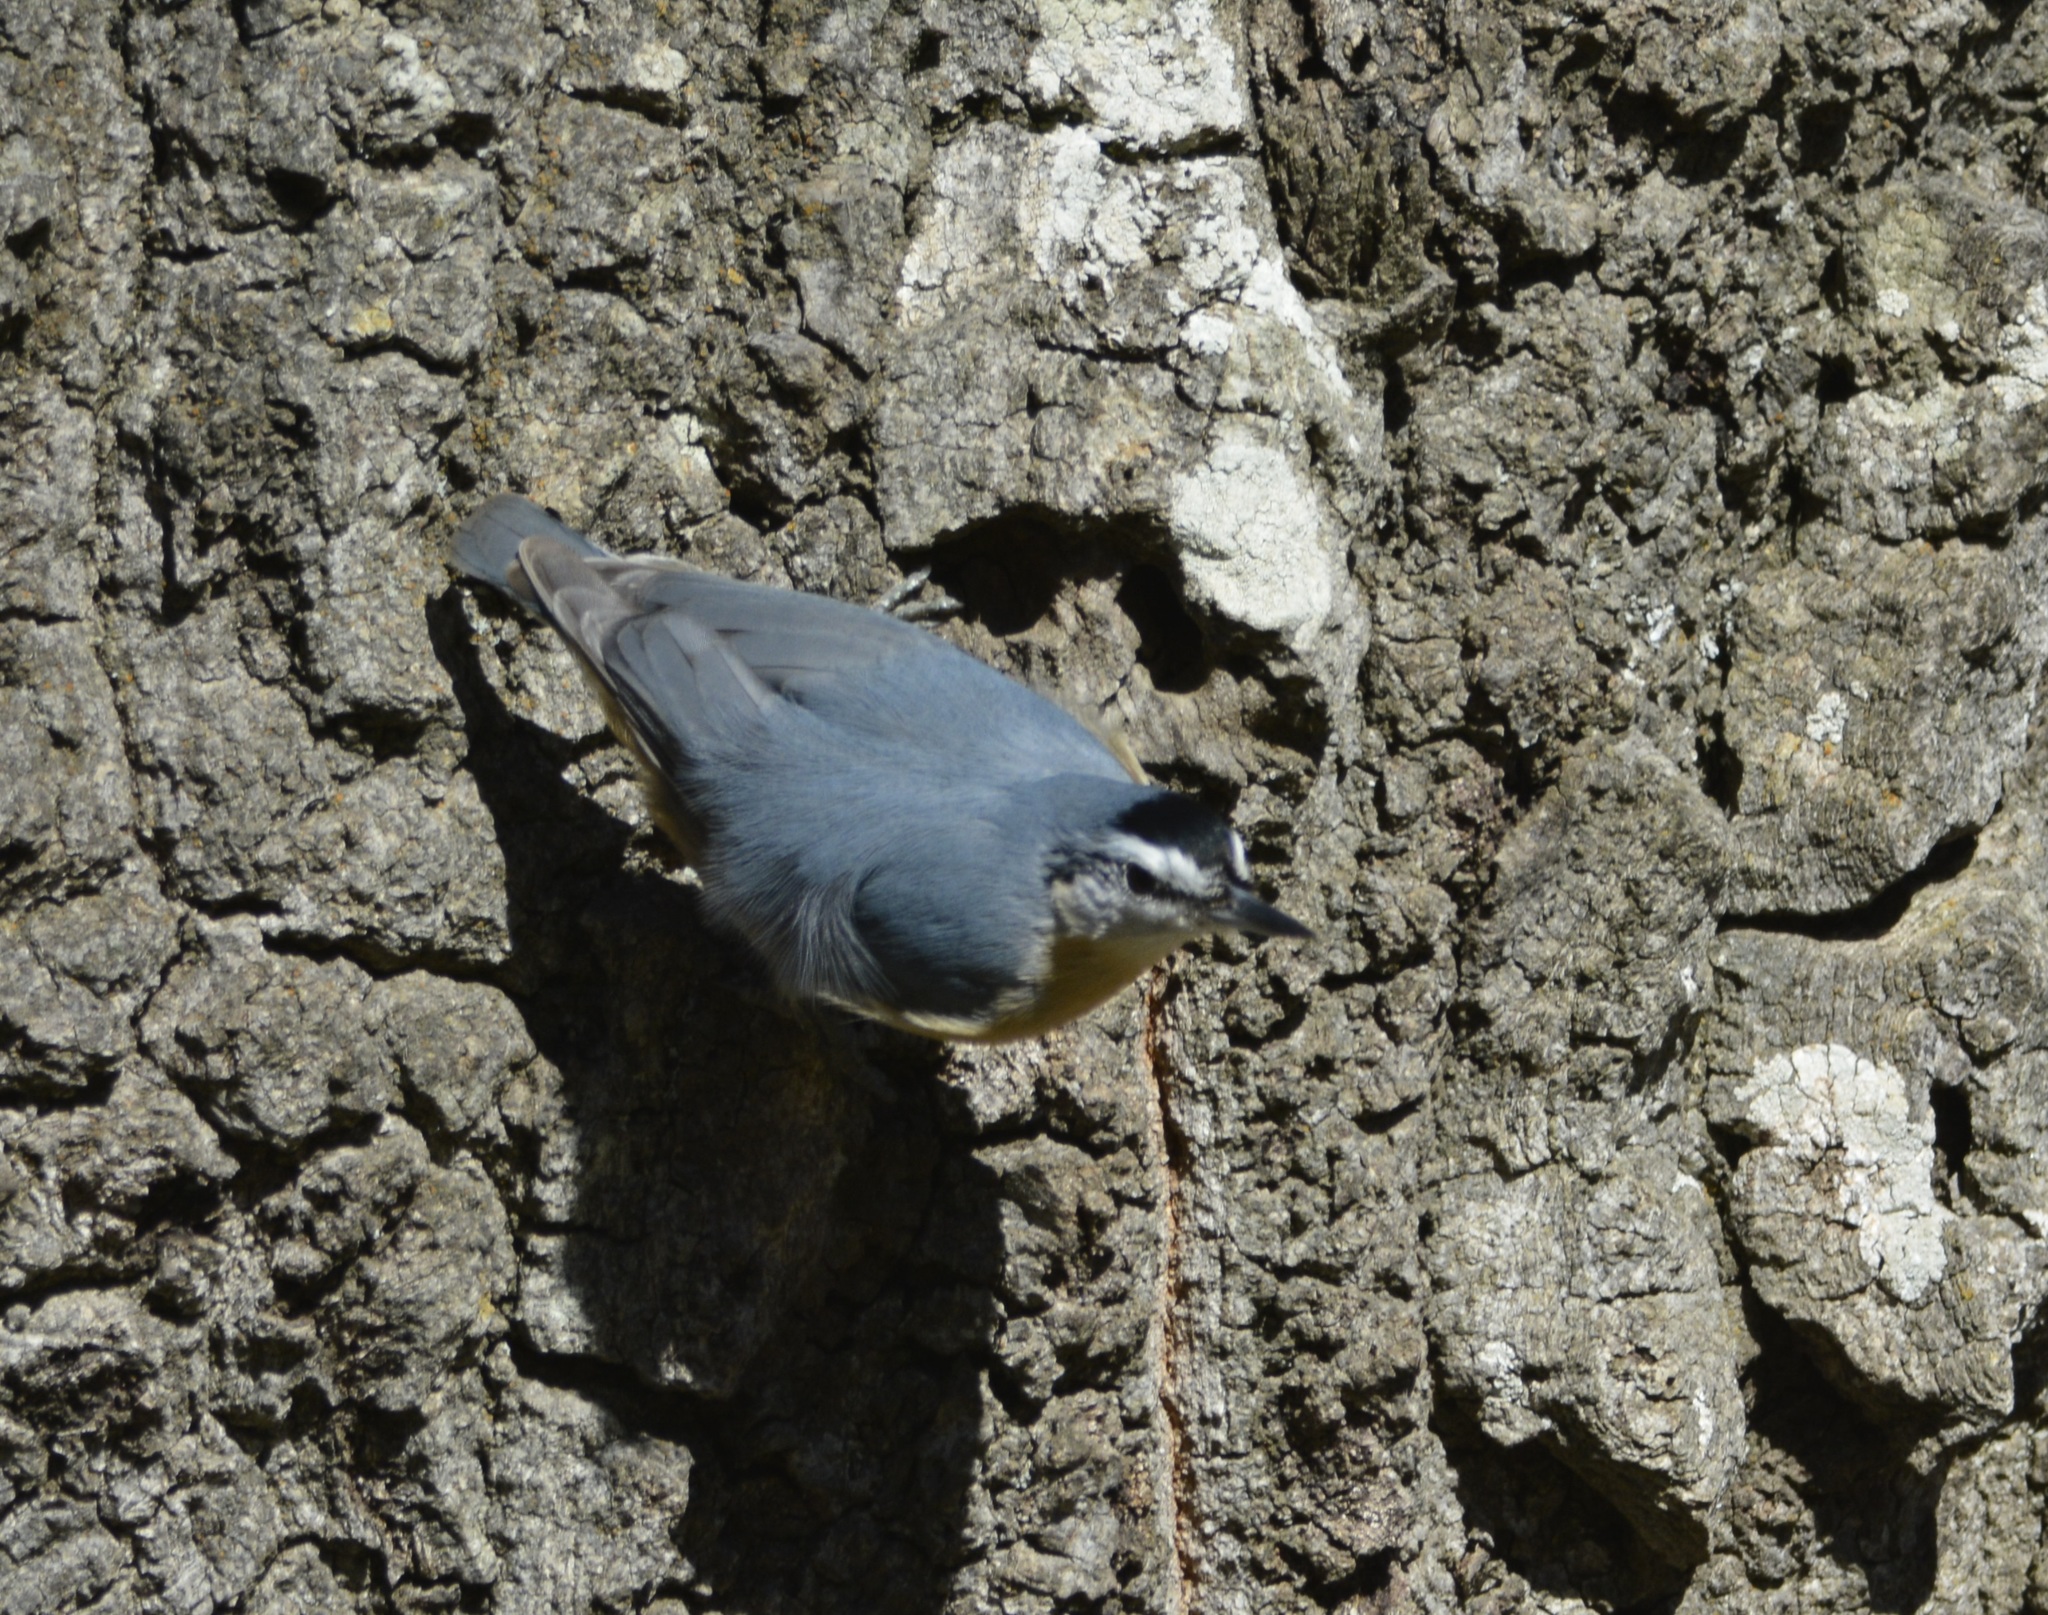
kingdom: Animalia
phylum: Chordata
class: Aves
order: Passeriformes
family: Sittidae
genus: Sitta
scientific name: Sitta ledanti
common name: Algerian nuthatch
